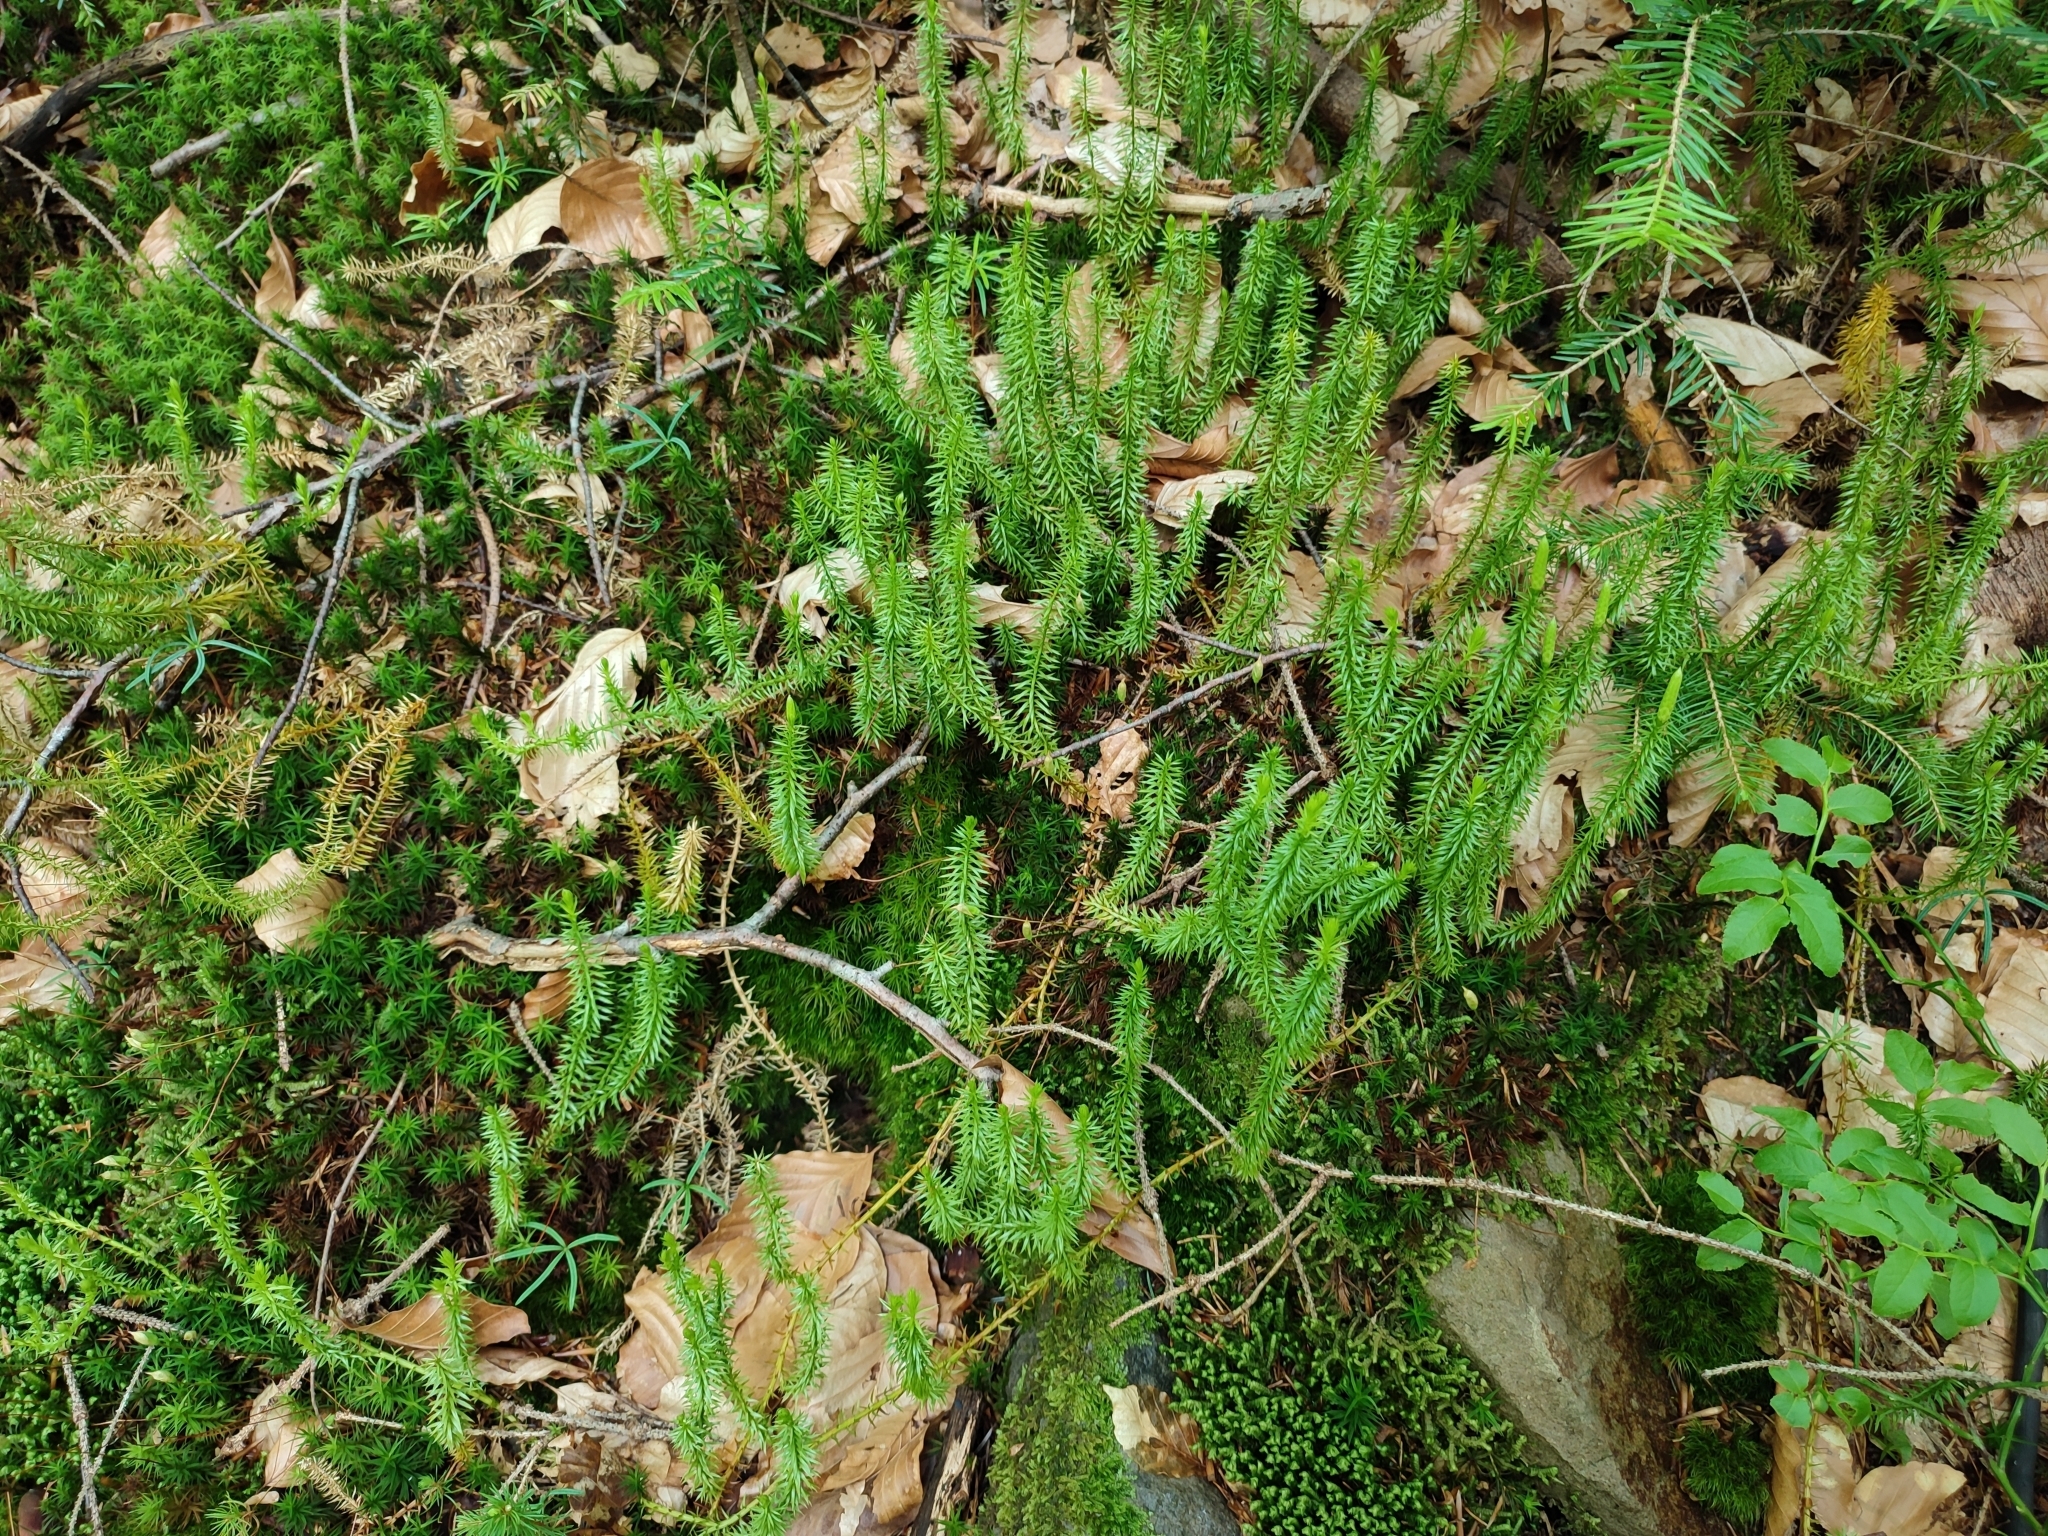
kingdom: Plantae
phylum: Tracheophyta
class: Lycopodiopsida
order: Lycopodiales
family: Lycopodiaceae
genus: Spinulum
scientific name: Spinulum annotinum
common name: Interrupted club-moss
